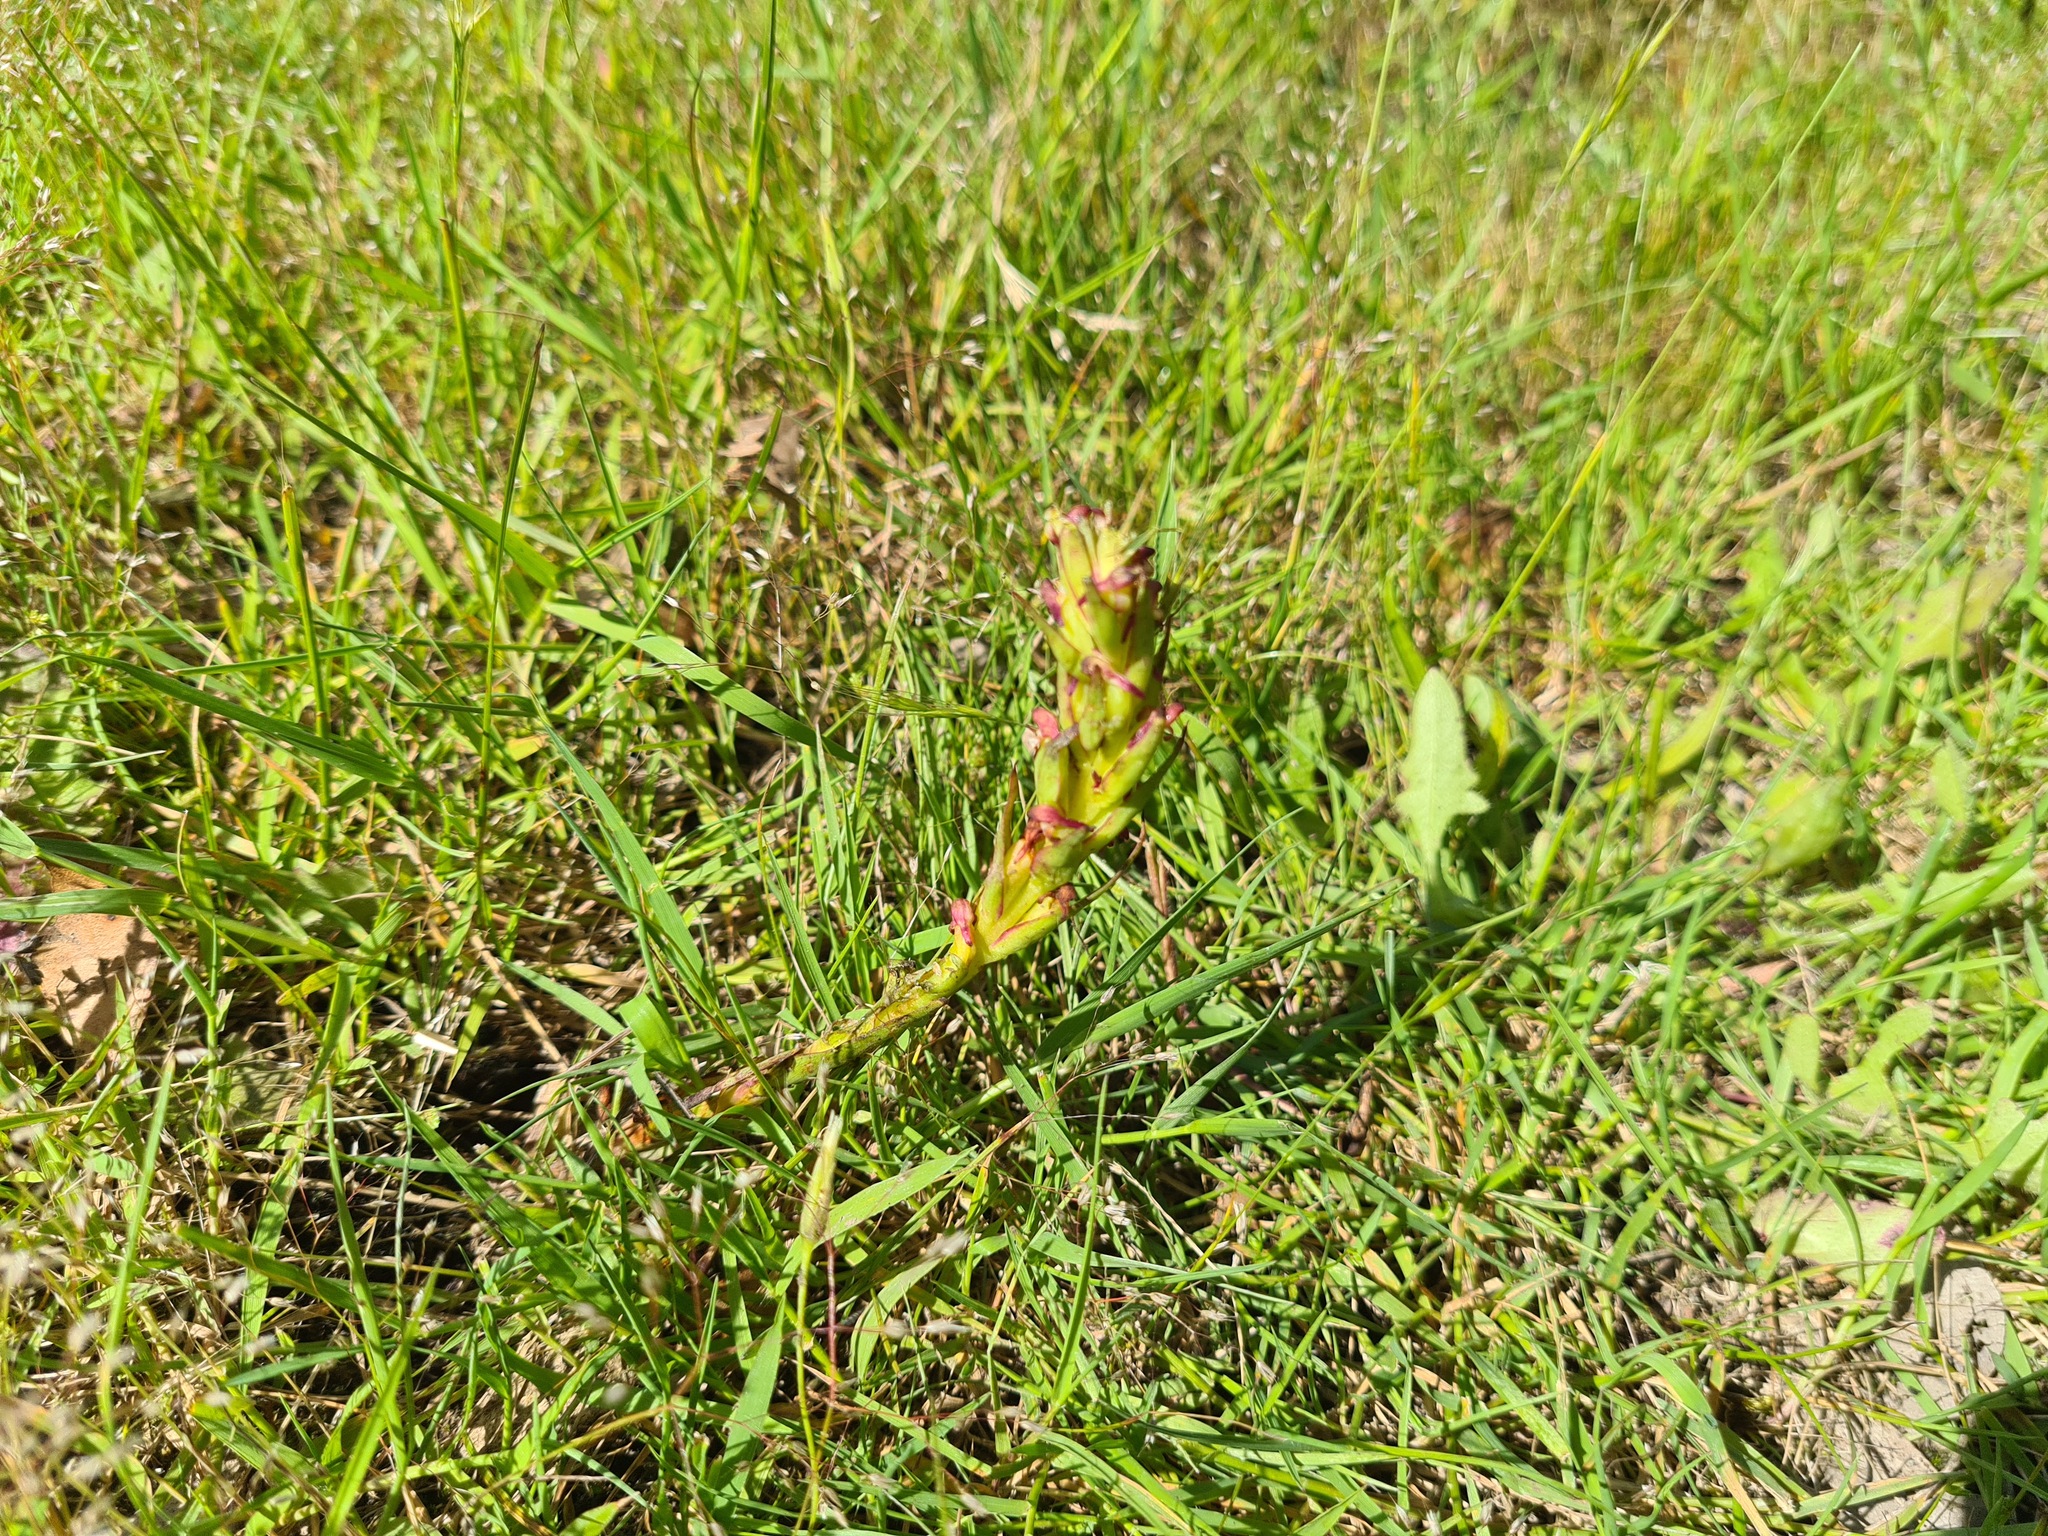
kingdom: Plantae
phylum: Tracheophyta
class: Liliopsida
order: Asparagales
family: Orchidaceae
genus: Disa
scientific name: Disa bracteata
